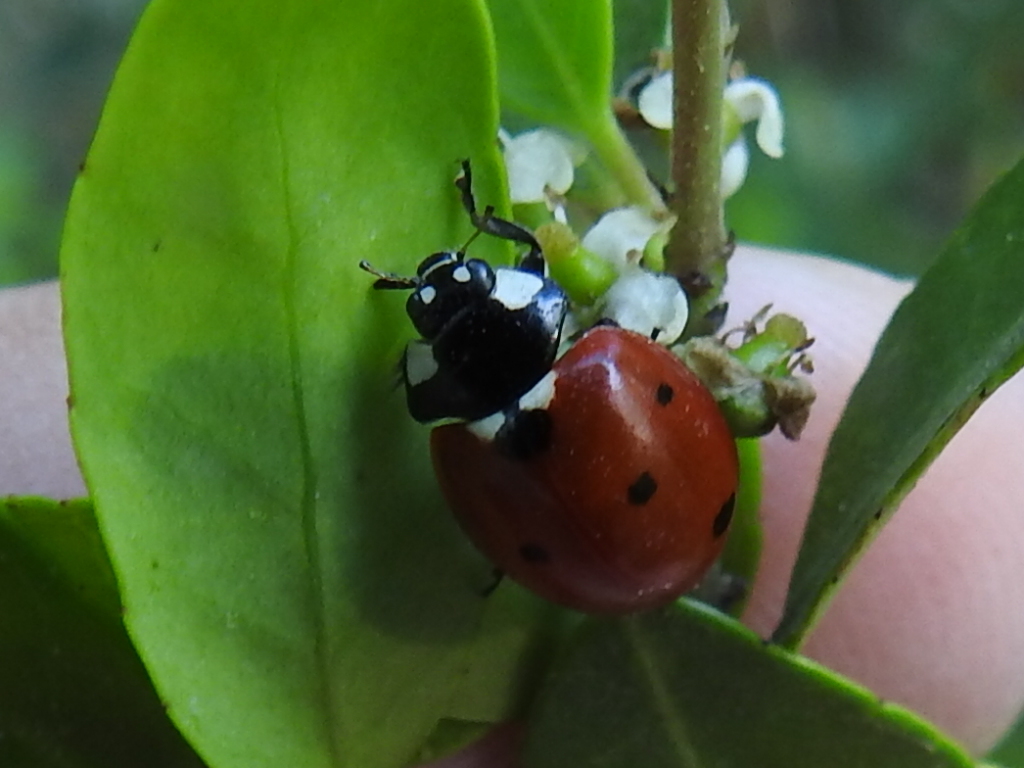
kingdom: Animalia
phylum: Arthropoda
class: Insecta
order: Coleoptera
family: Coccinellidae
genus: Coccinella
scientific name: Coccinella septempunctata
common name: Sevenspotted lady beetle
